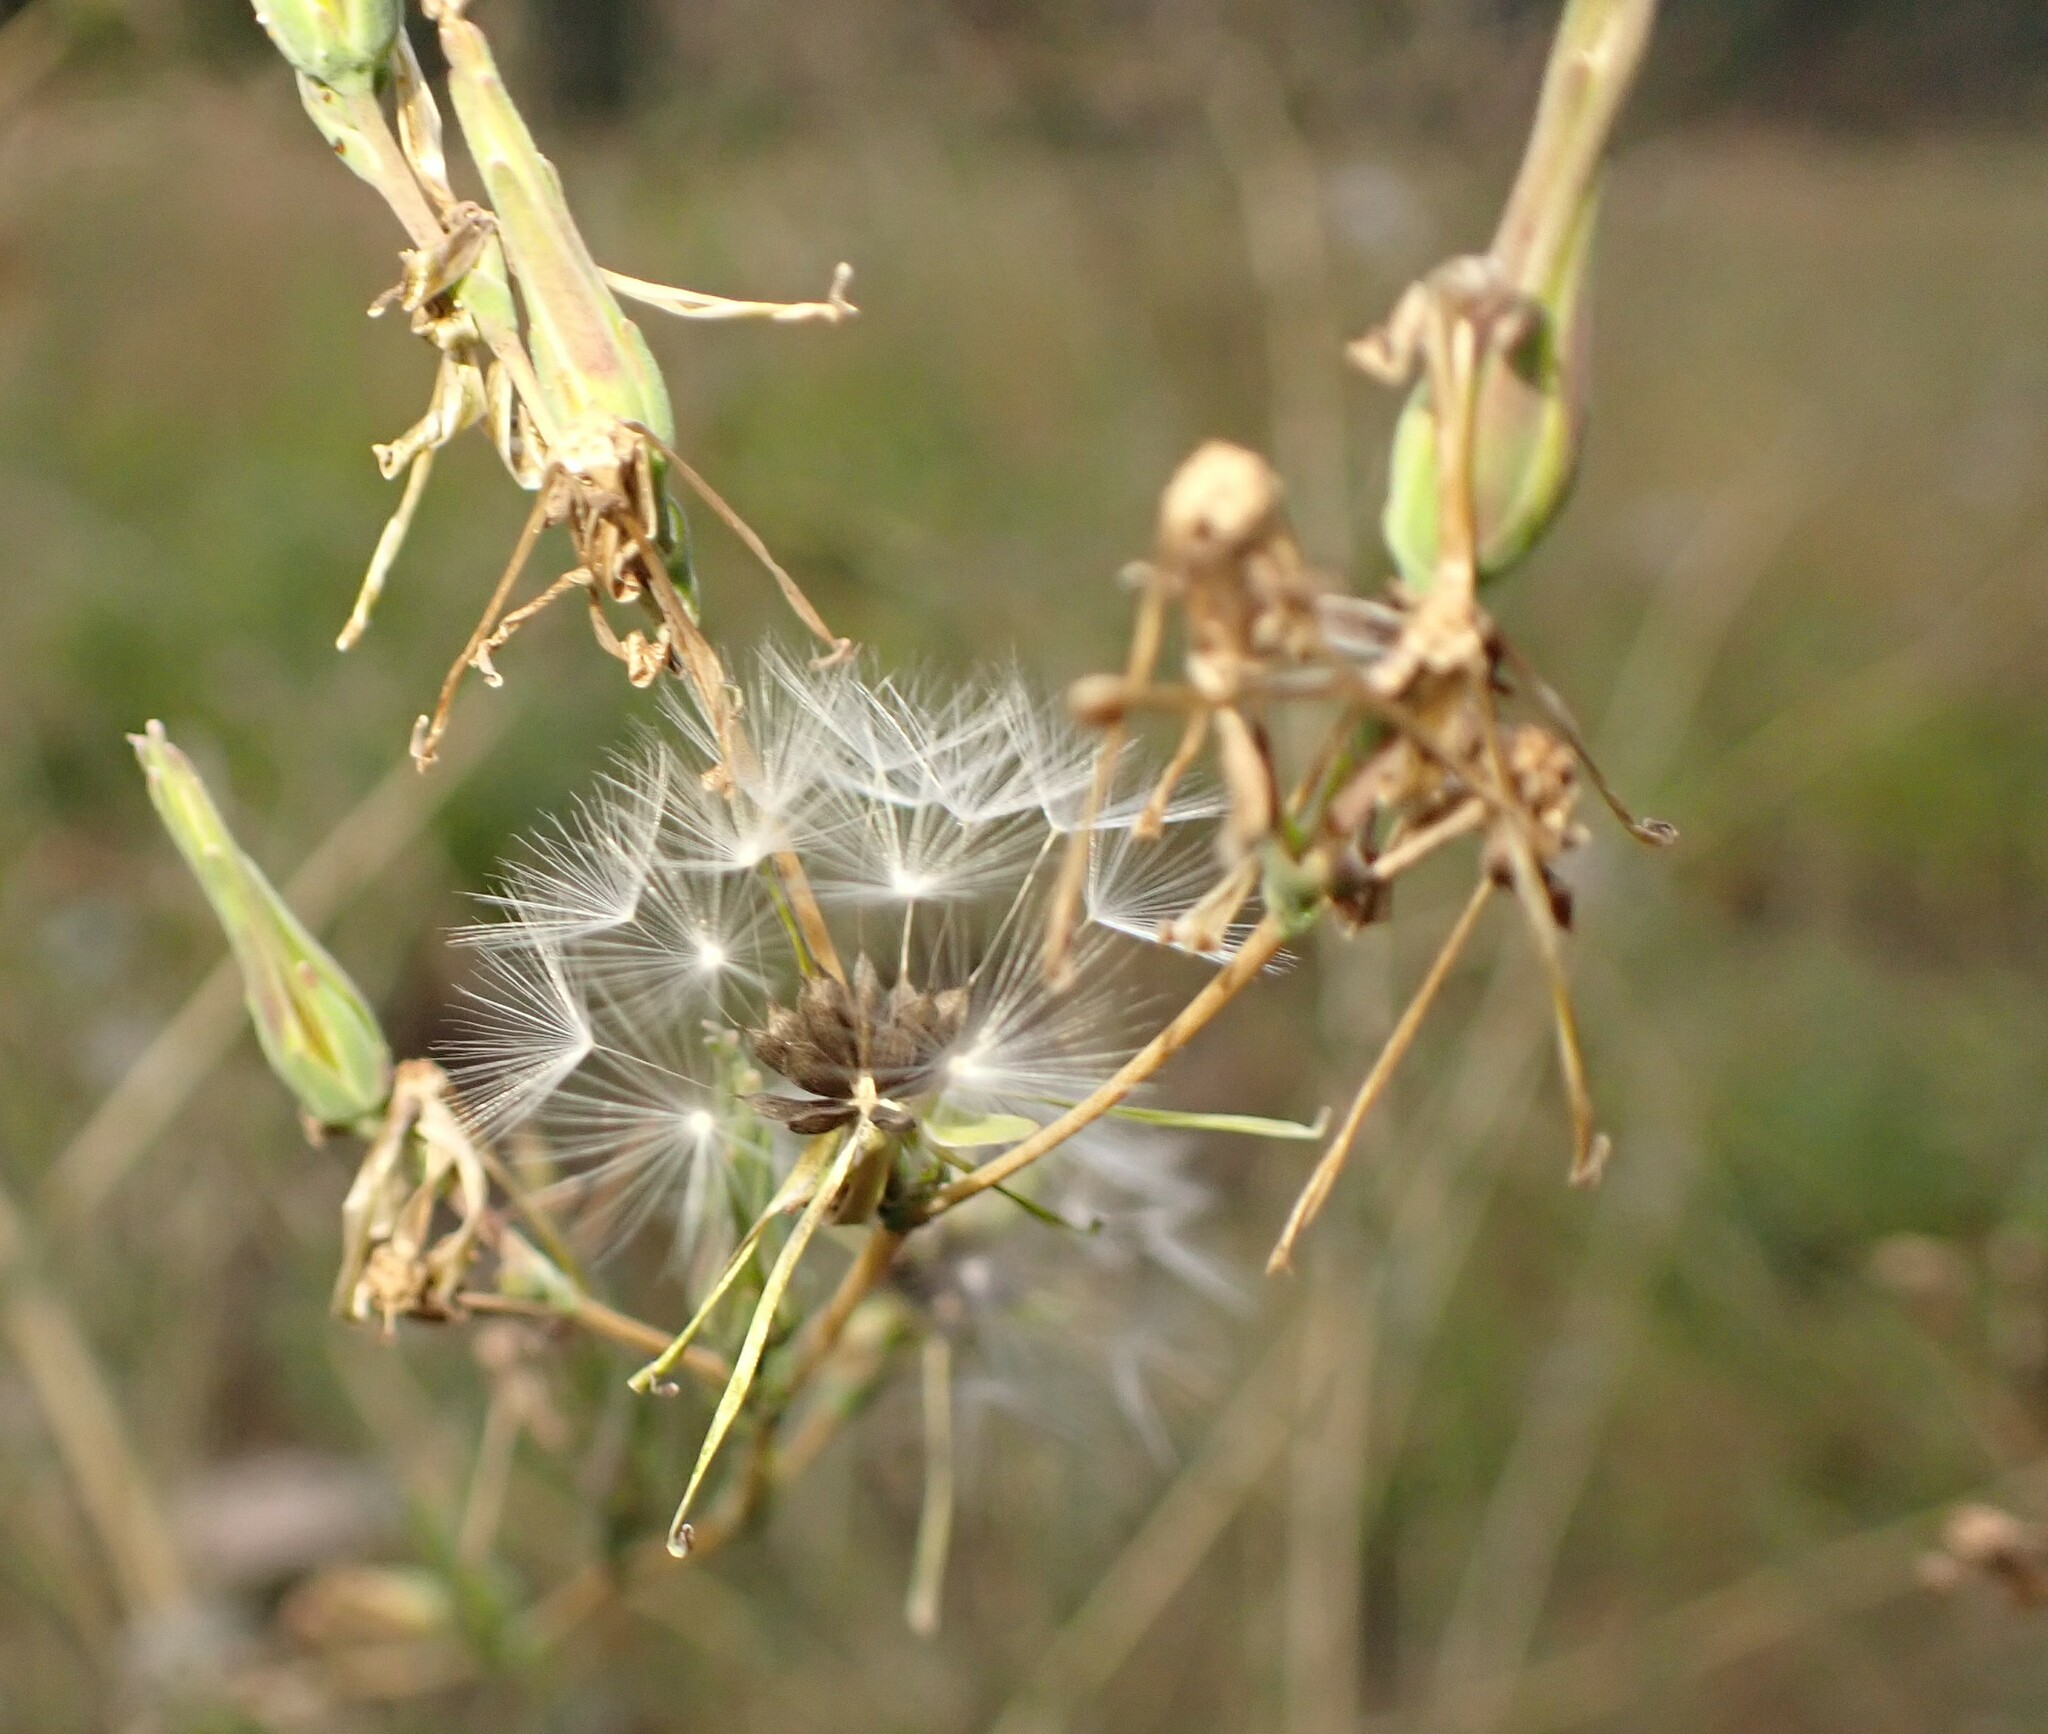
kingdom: Plantae
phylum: Tracheophyta
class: Magnoliopsida
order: Asterales
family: Asteraceae
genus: Lactuca
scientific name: Lactuca serriola
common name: Prickly lettuce
